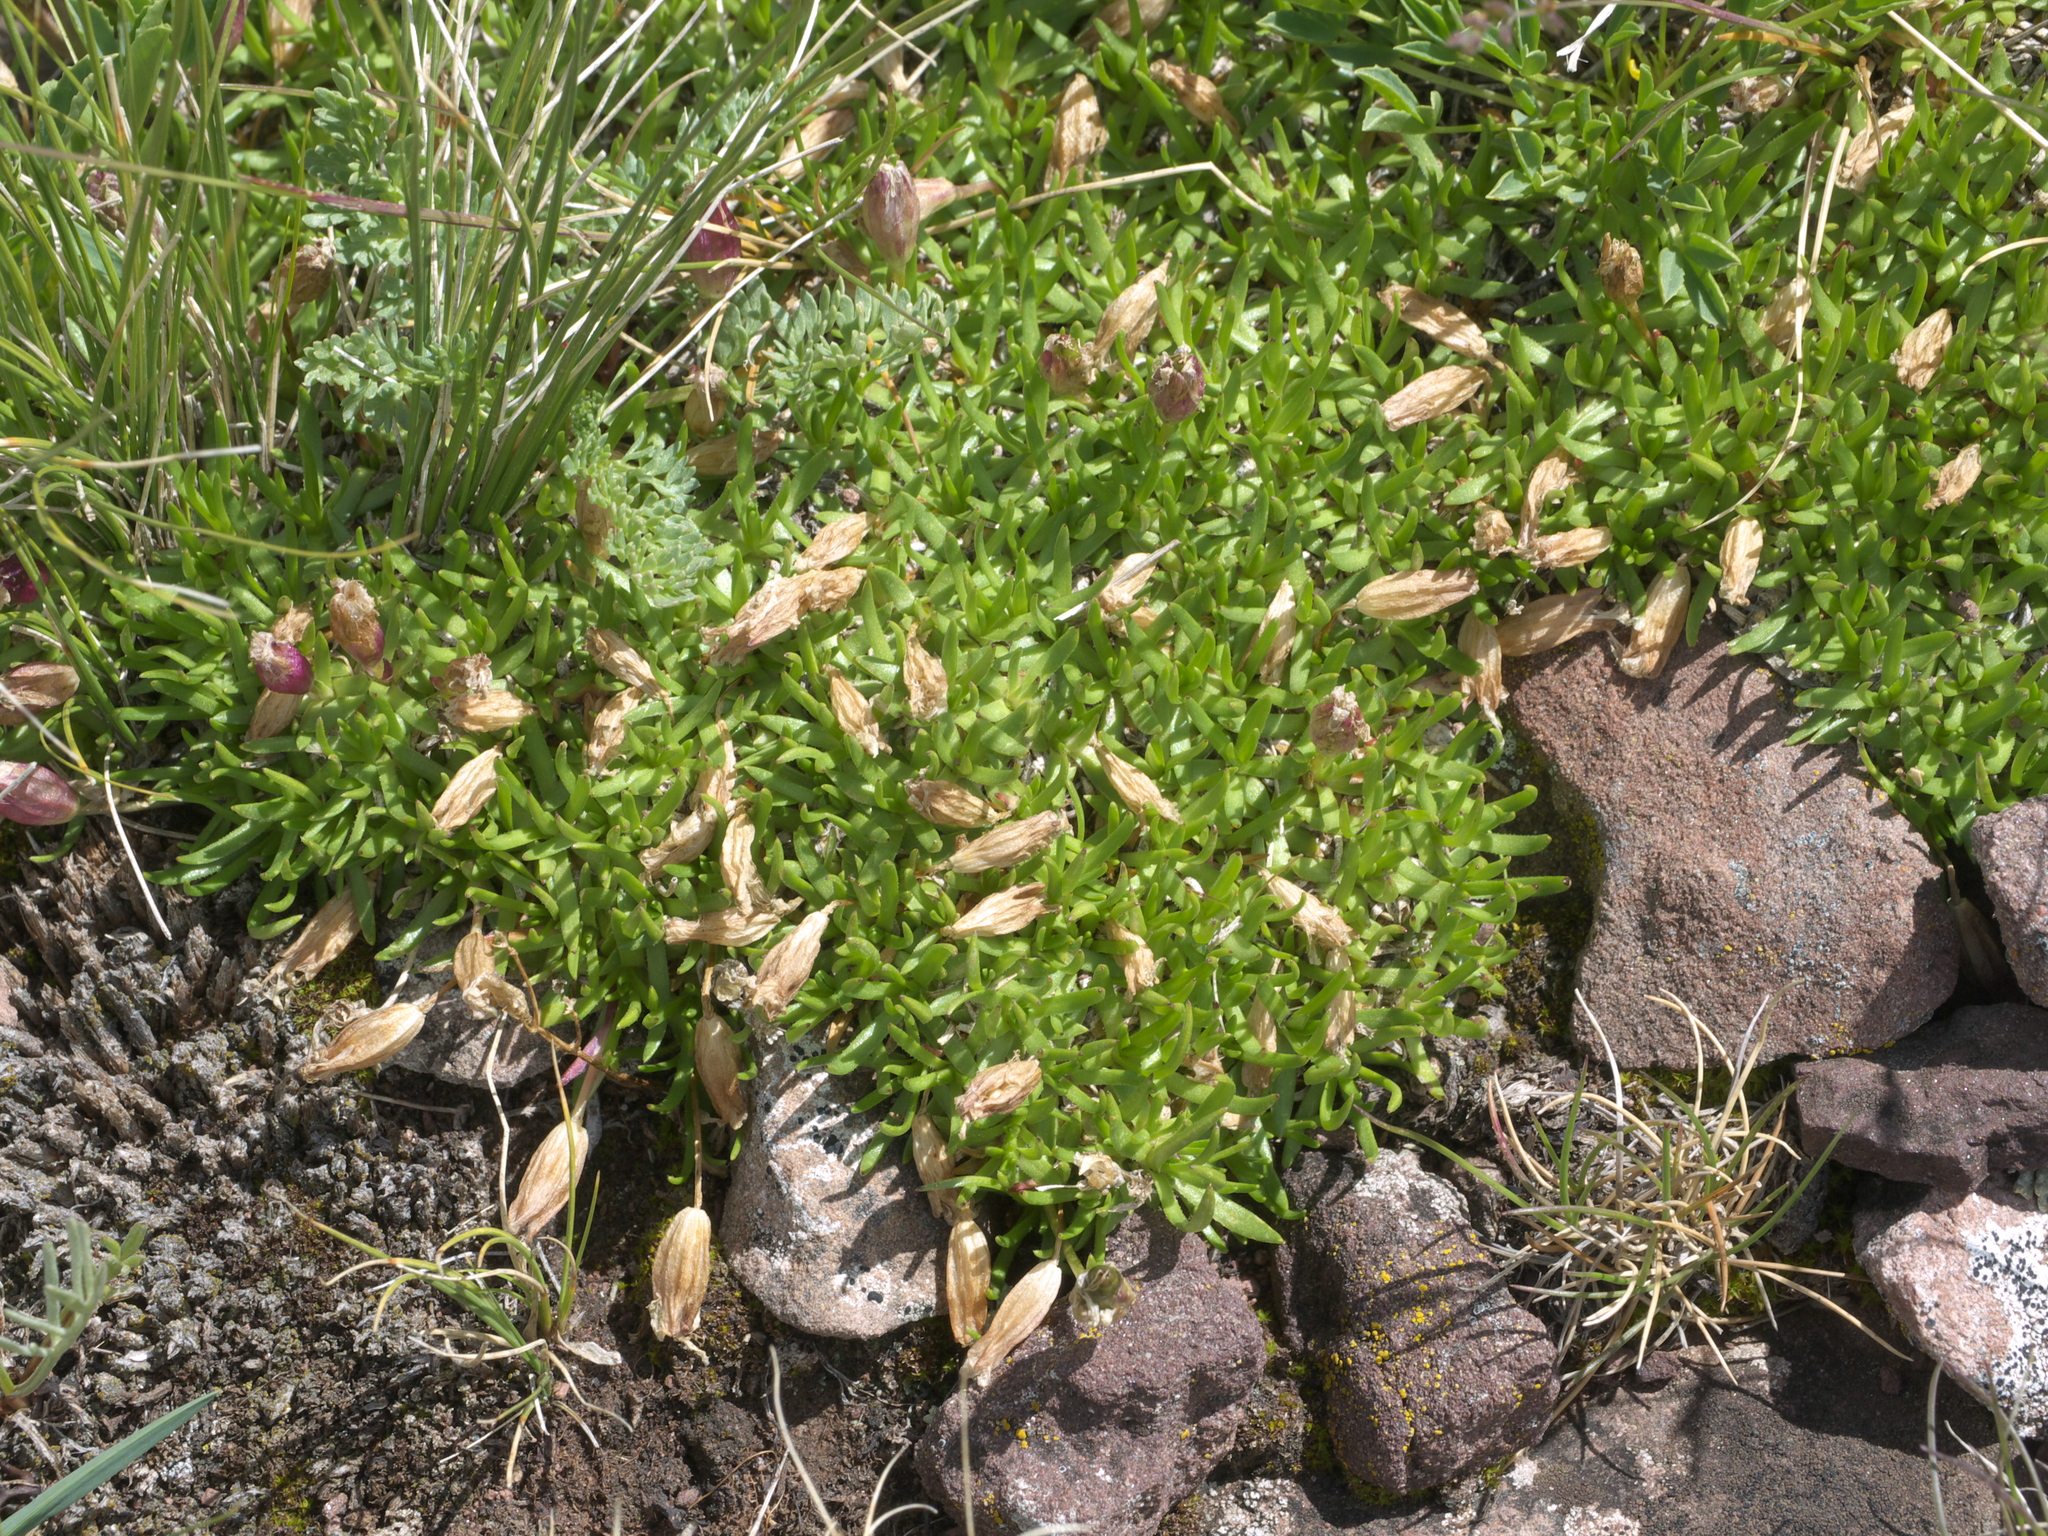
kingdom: Plantae
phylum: Tracheophyta
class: Magnoliopsida
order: Caryophyllales
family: Caryophyllaceae
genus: Silene
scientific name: Silene acaulis
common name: Moss campion
